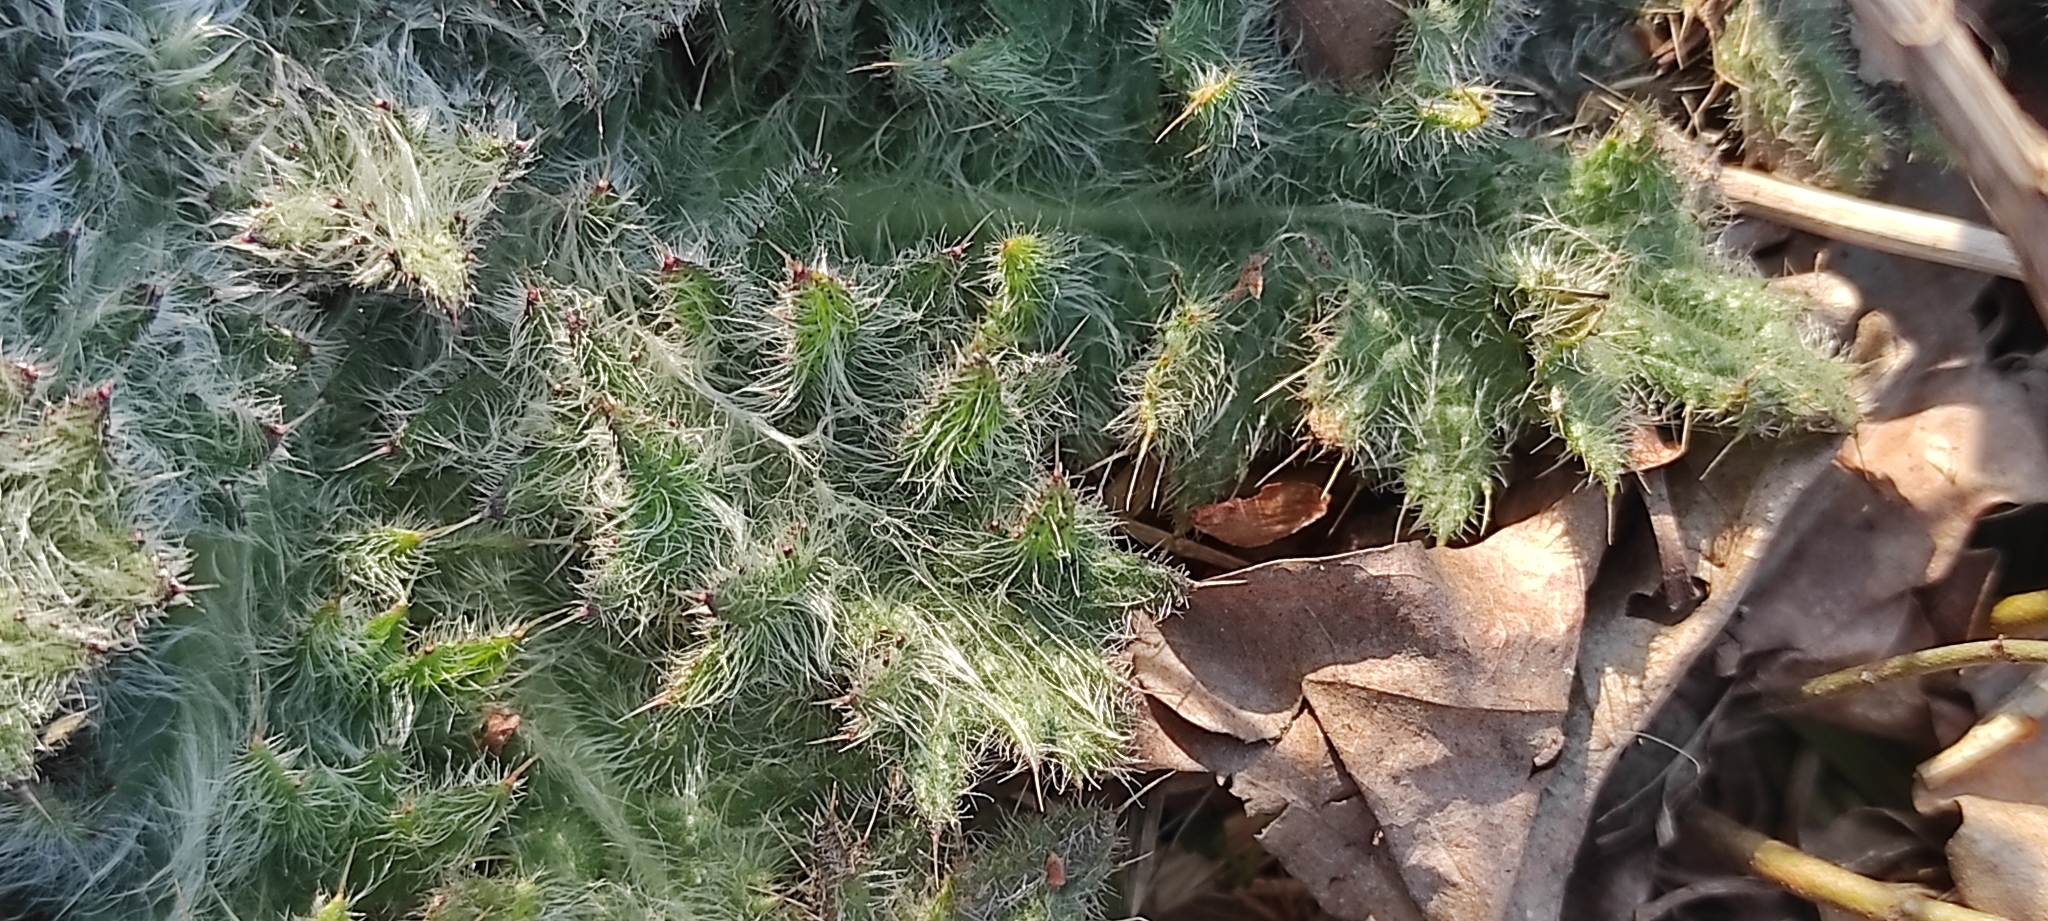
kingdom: Plantae
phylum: Tracheophyta
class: Magnoliopsida
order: Asterales
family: Asteraceae
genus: Cirsium
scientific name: Cirsium vulgare
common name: Bull thistle
